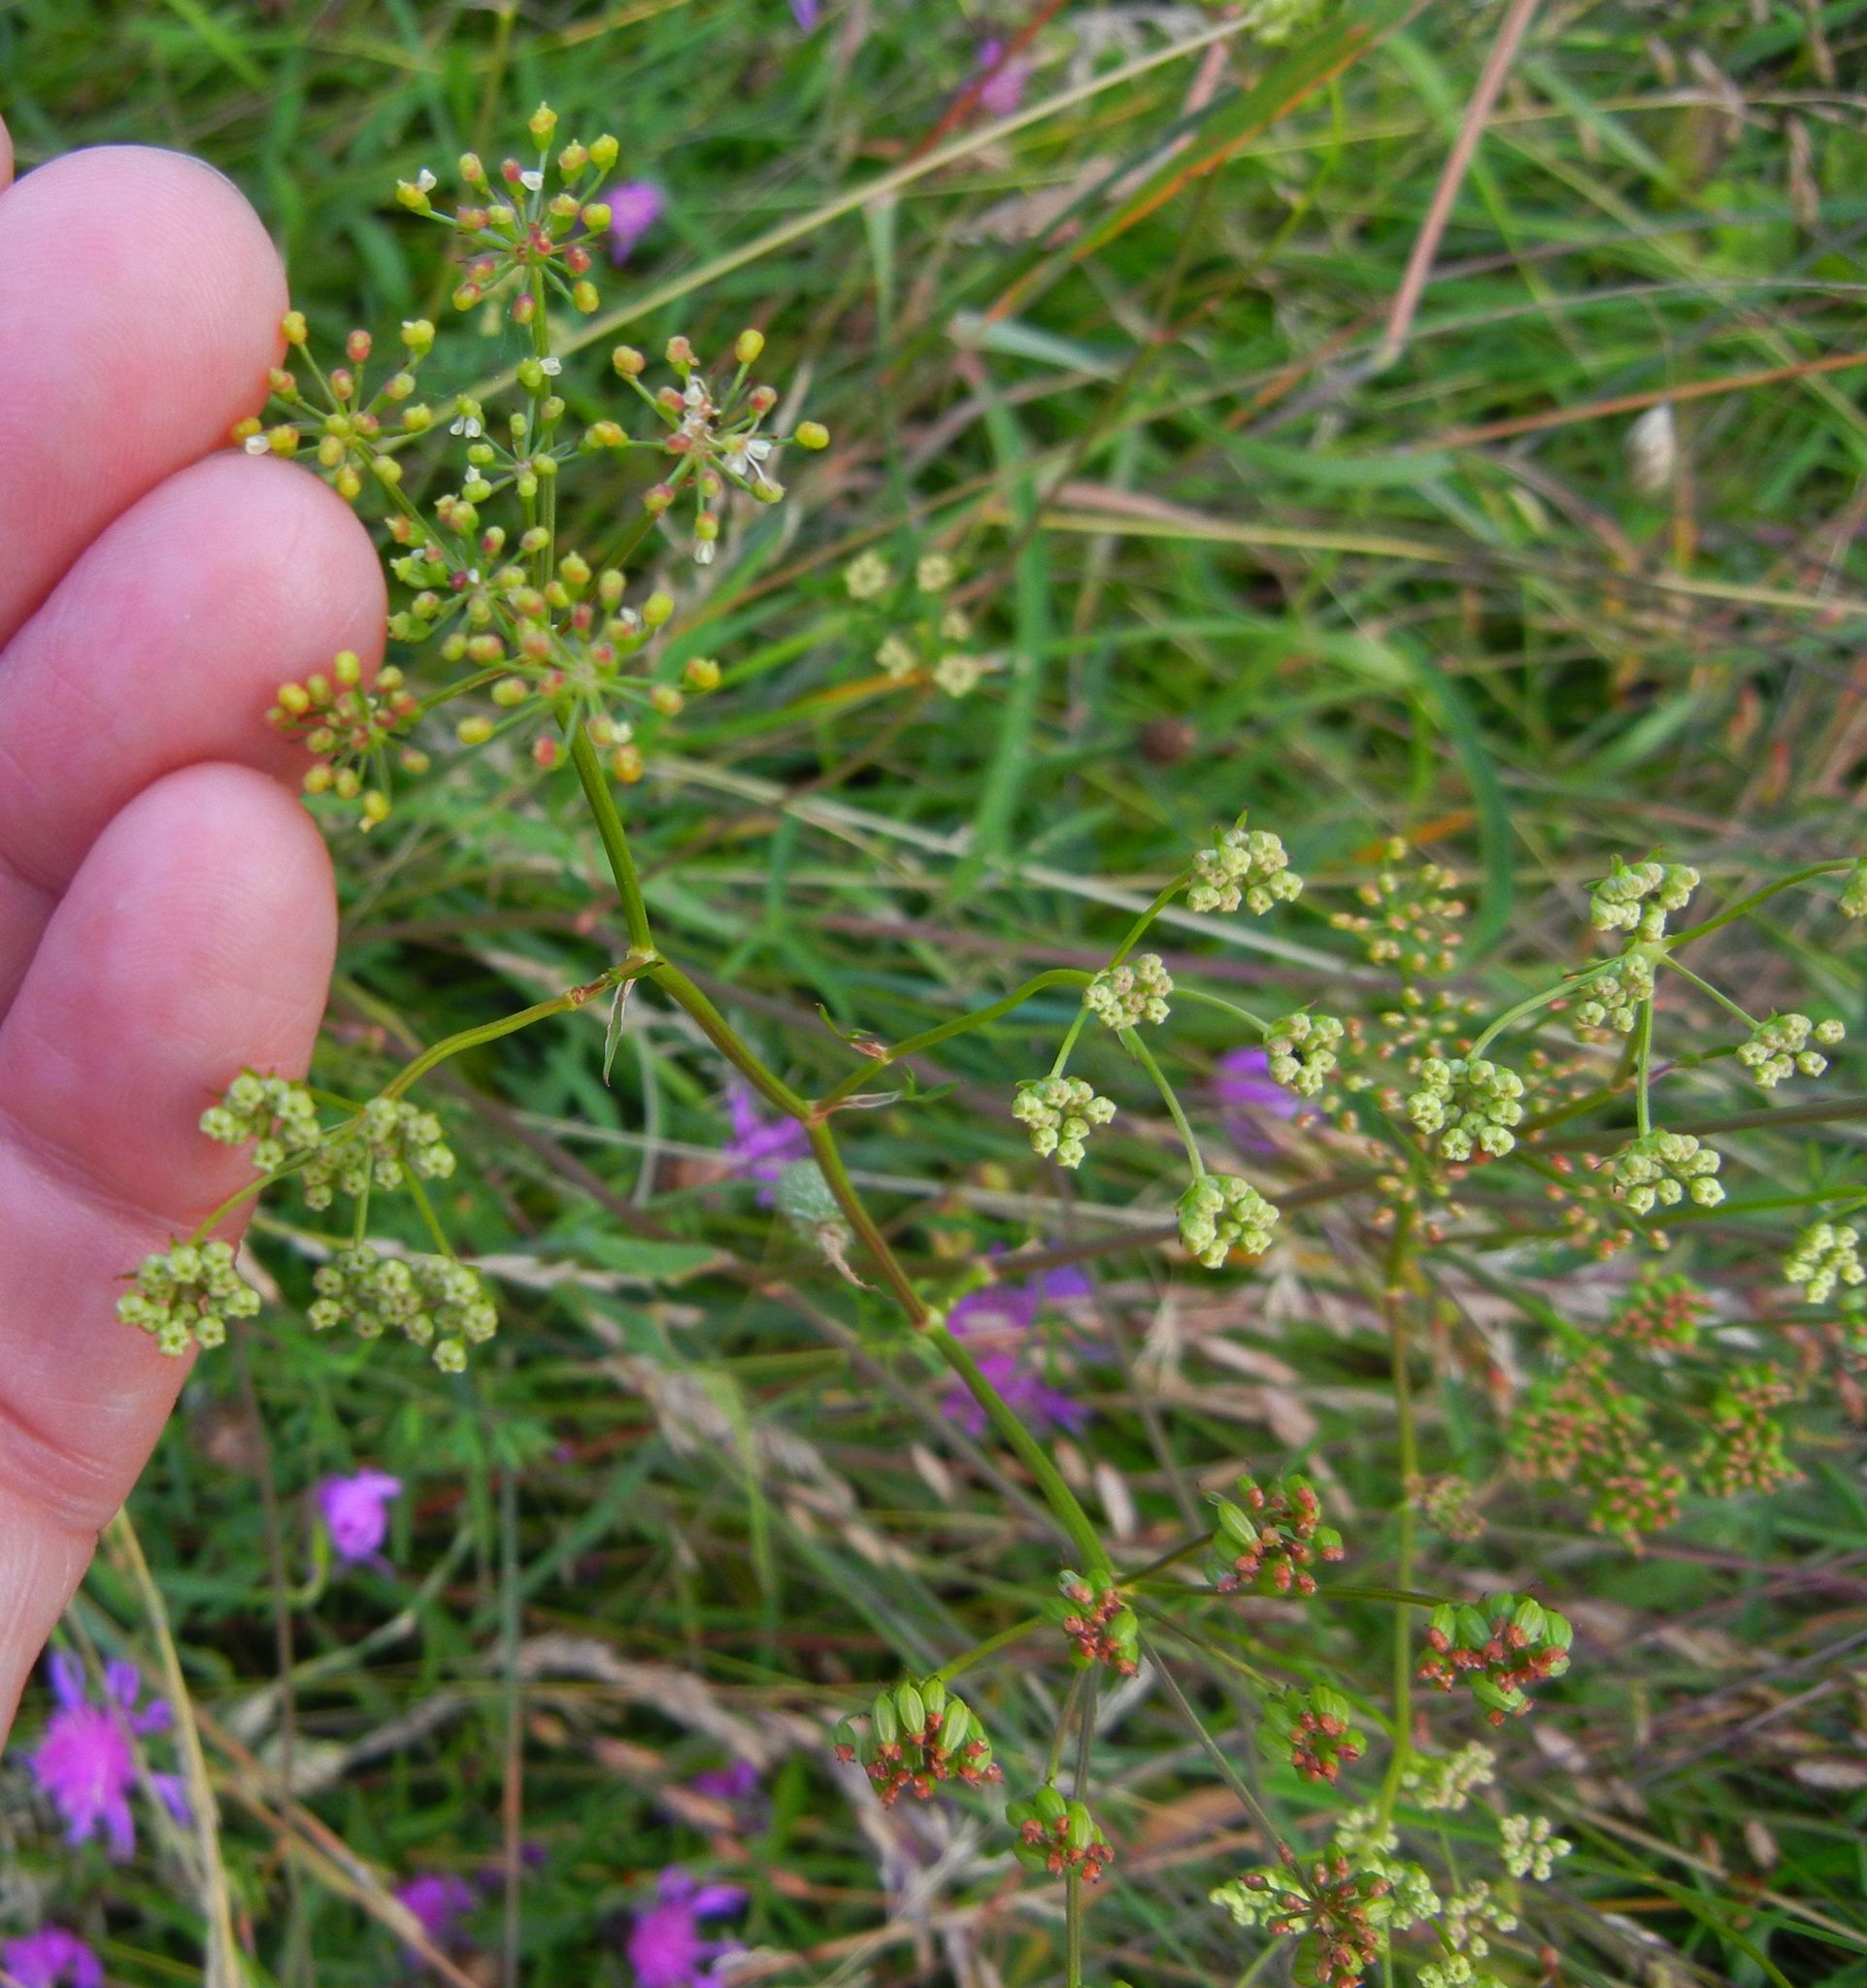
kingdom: Plantae
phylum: Tracheophyta
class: Magnoliopsida
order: Apiales
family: Apiaceae
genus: Silaum
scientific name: Silaum silaus
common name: Pepper-saxifrage
